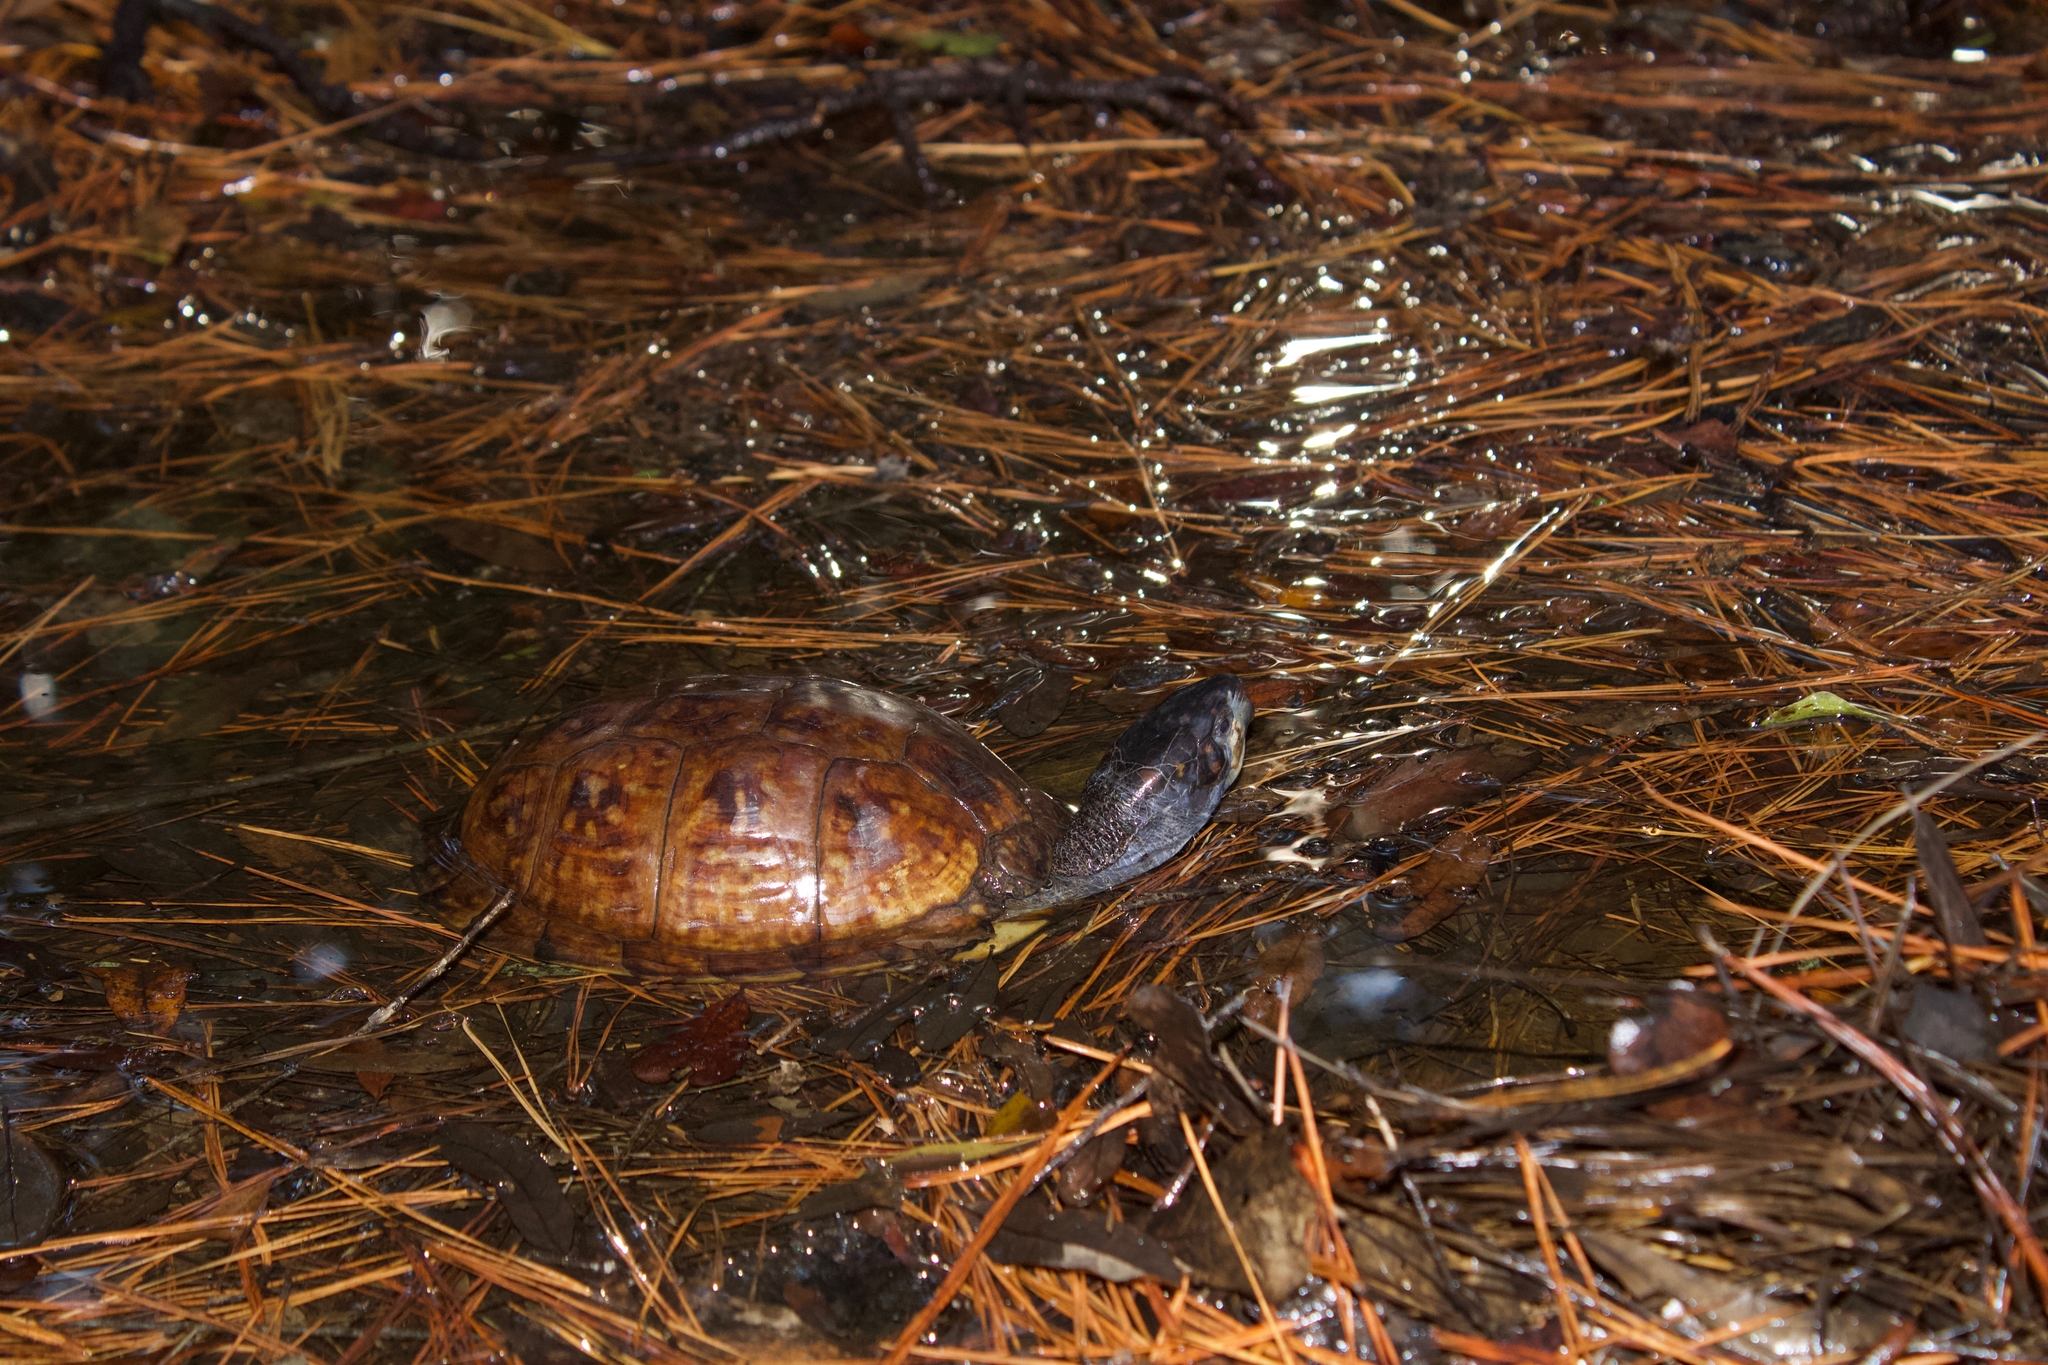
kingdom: Animalia
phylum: Chordata
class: Testudines
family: Emydidae
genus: Terrapene
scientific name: Terrapene carolina
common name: Common box turtle
